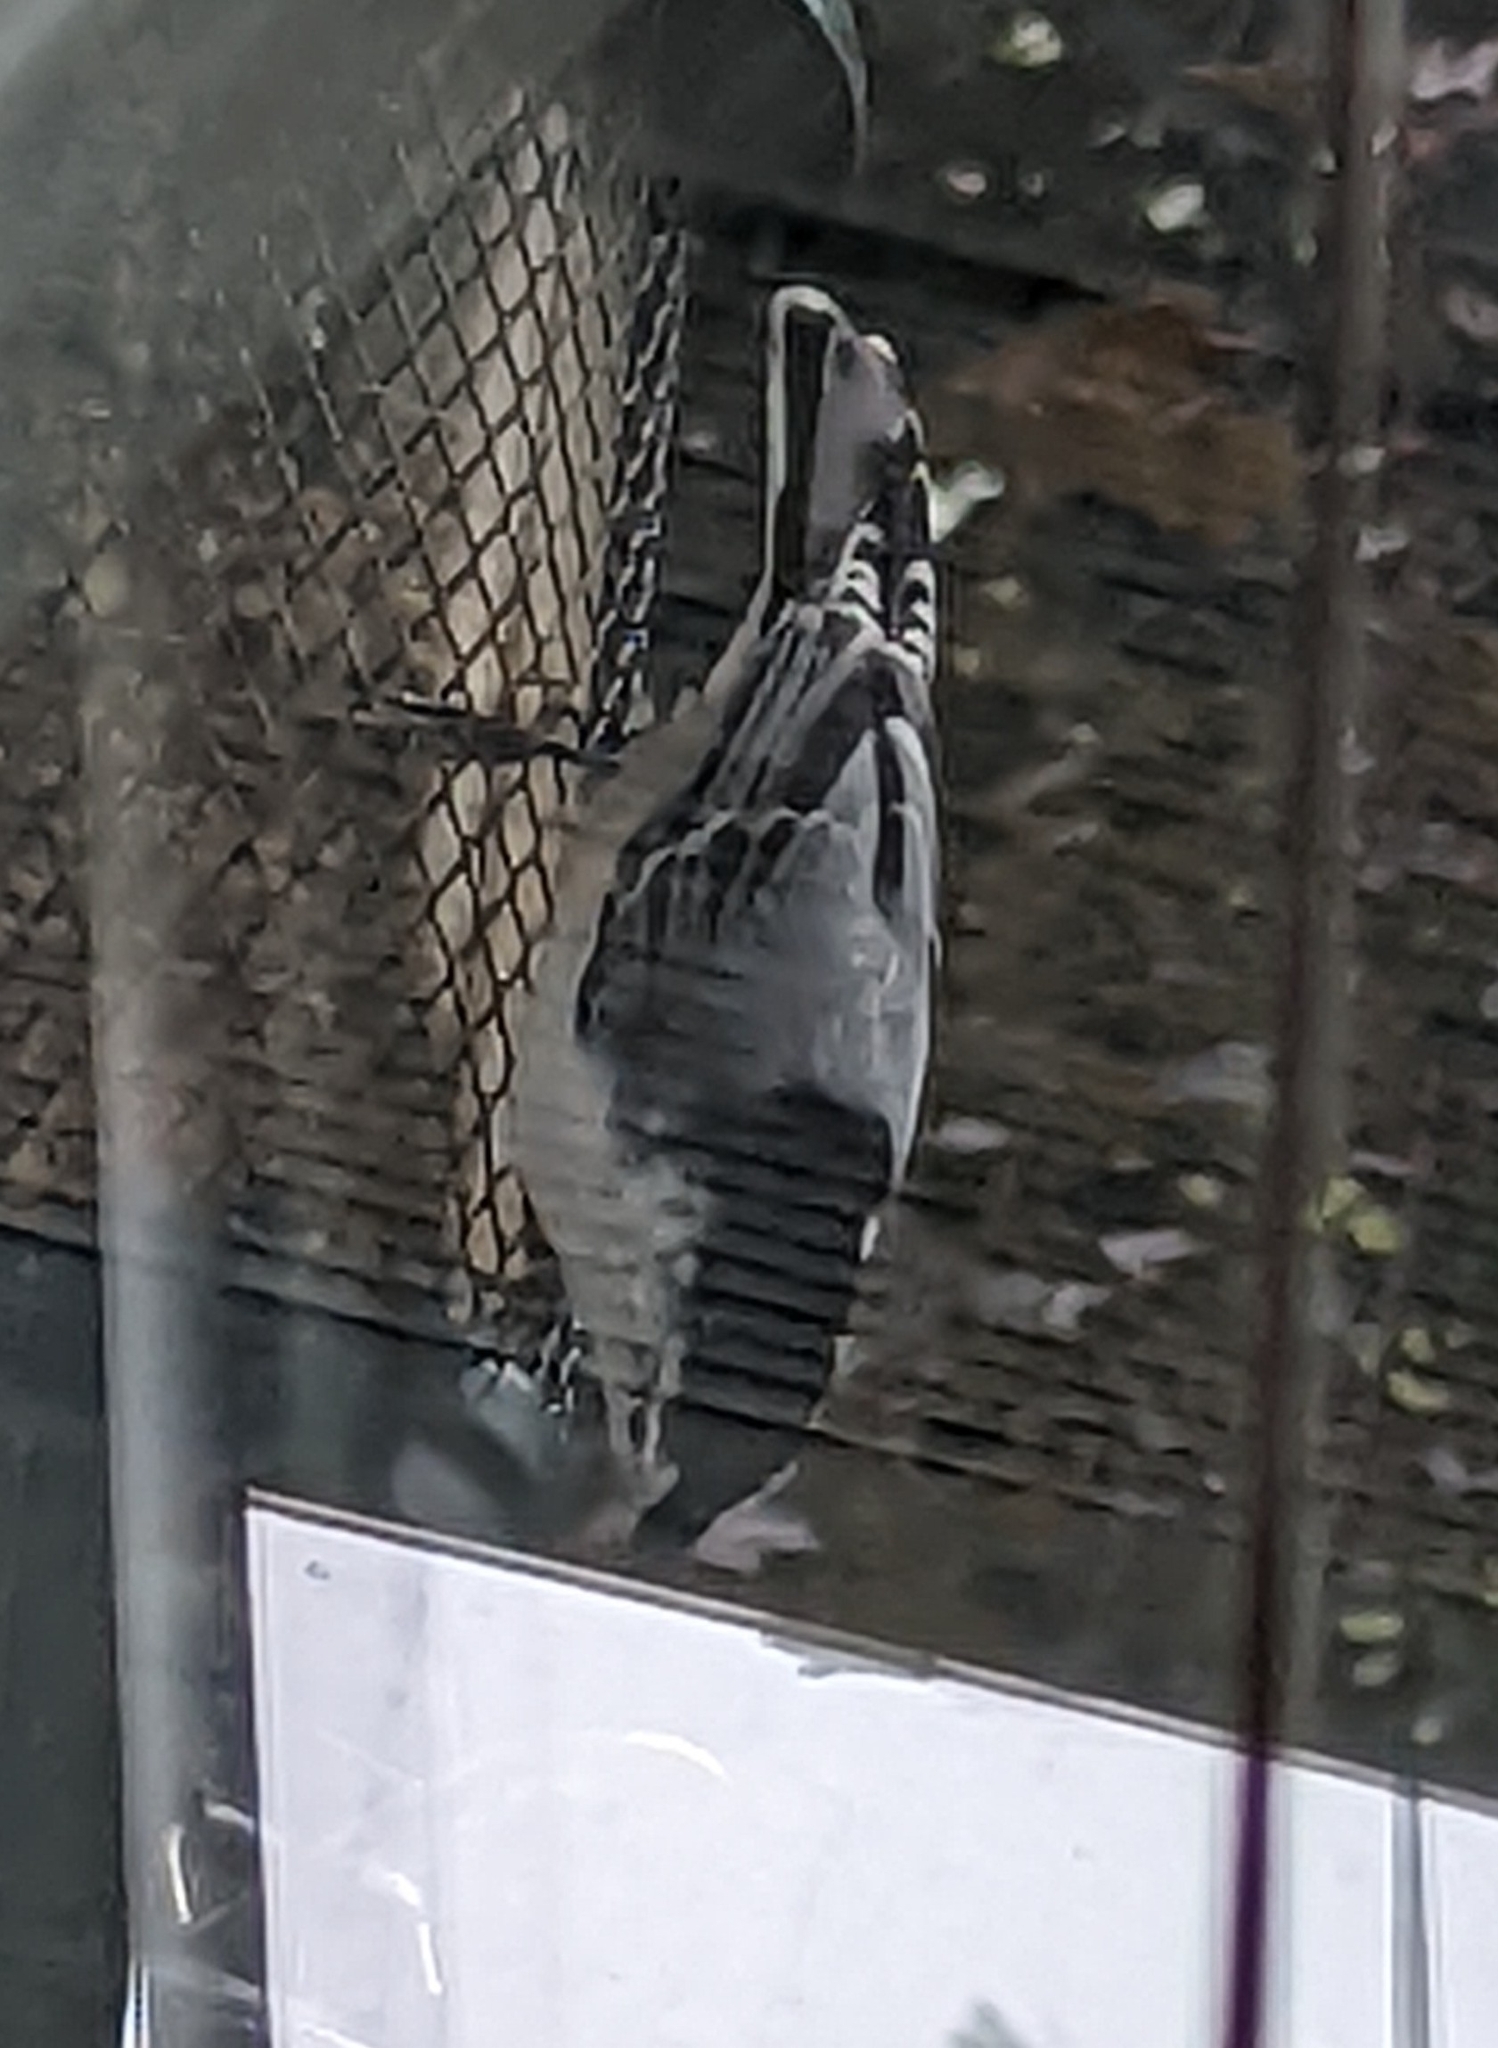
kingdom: Animalia
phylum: Chordata
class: Aves
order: Passeriformes
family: Sittidae
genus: Sitta
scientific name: Sitta carolinensis
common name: White-breasted nuthatch
